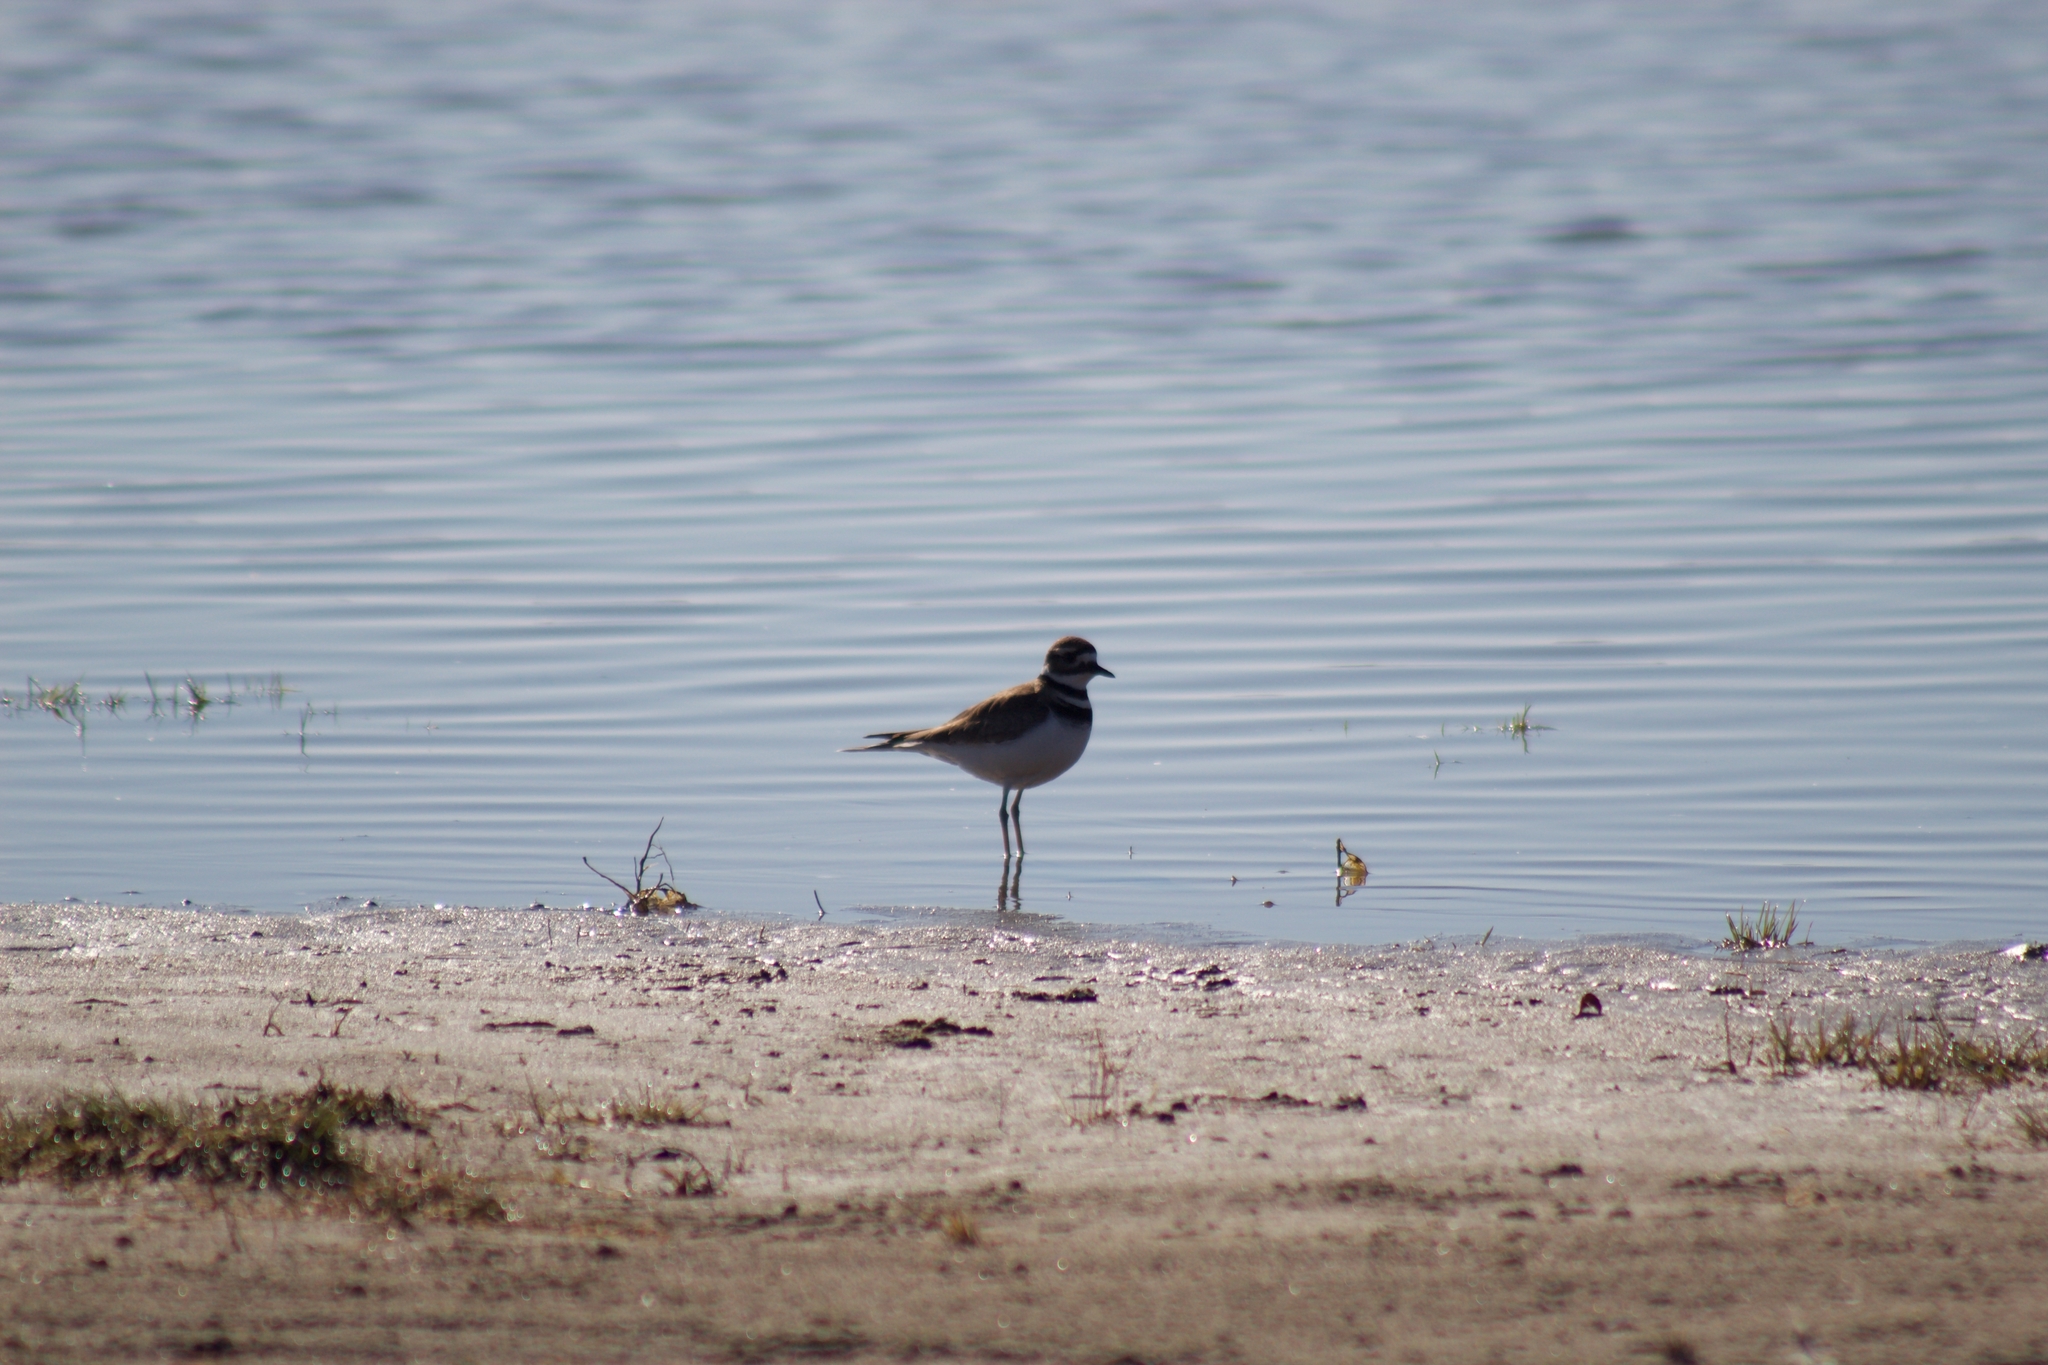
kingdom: Animalia
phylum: Chordata
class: Aves
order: Charadriiformes
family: Charadriidae
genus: Charadrius
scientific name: Charadrius vociferus
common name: Killdeer
